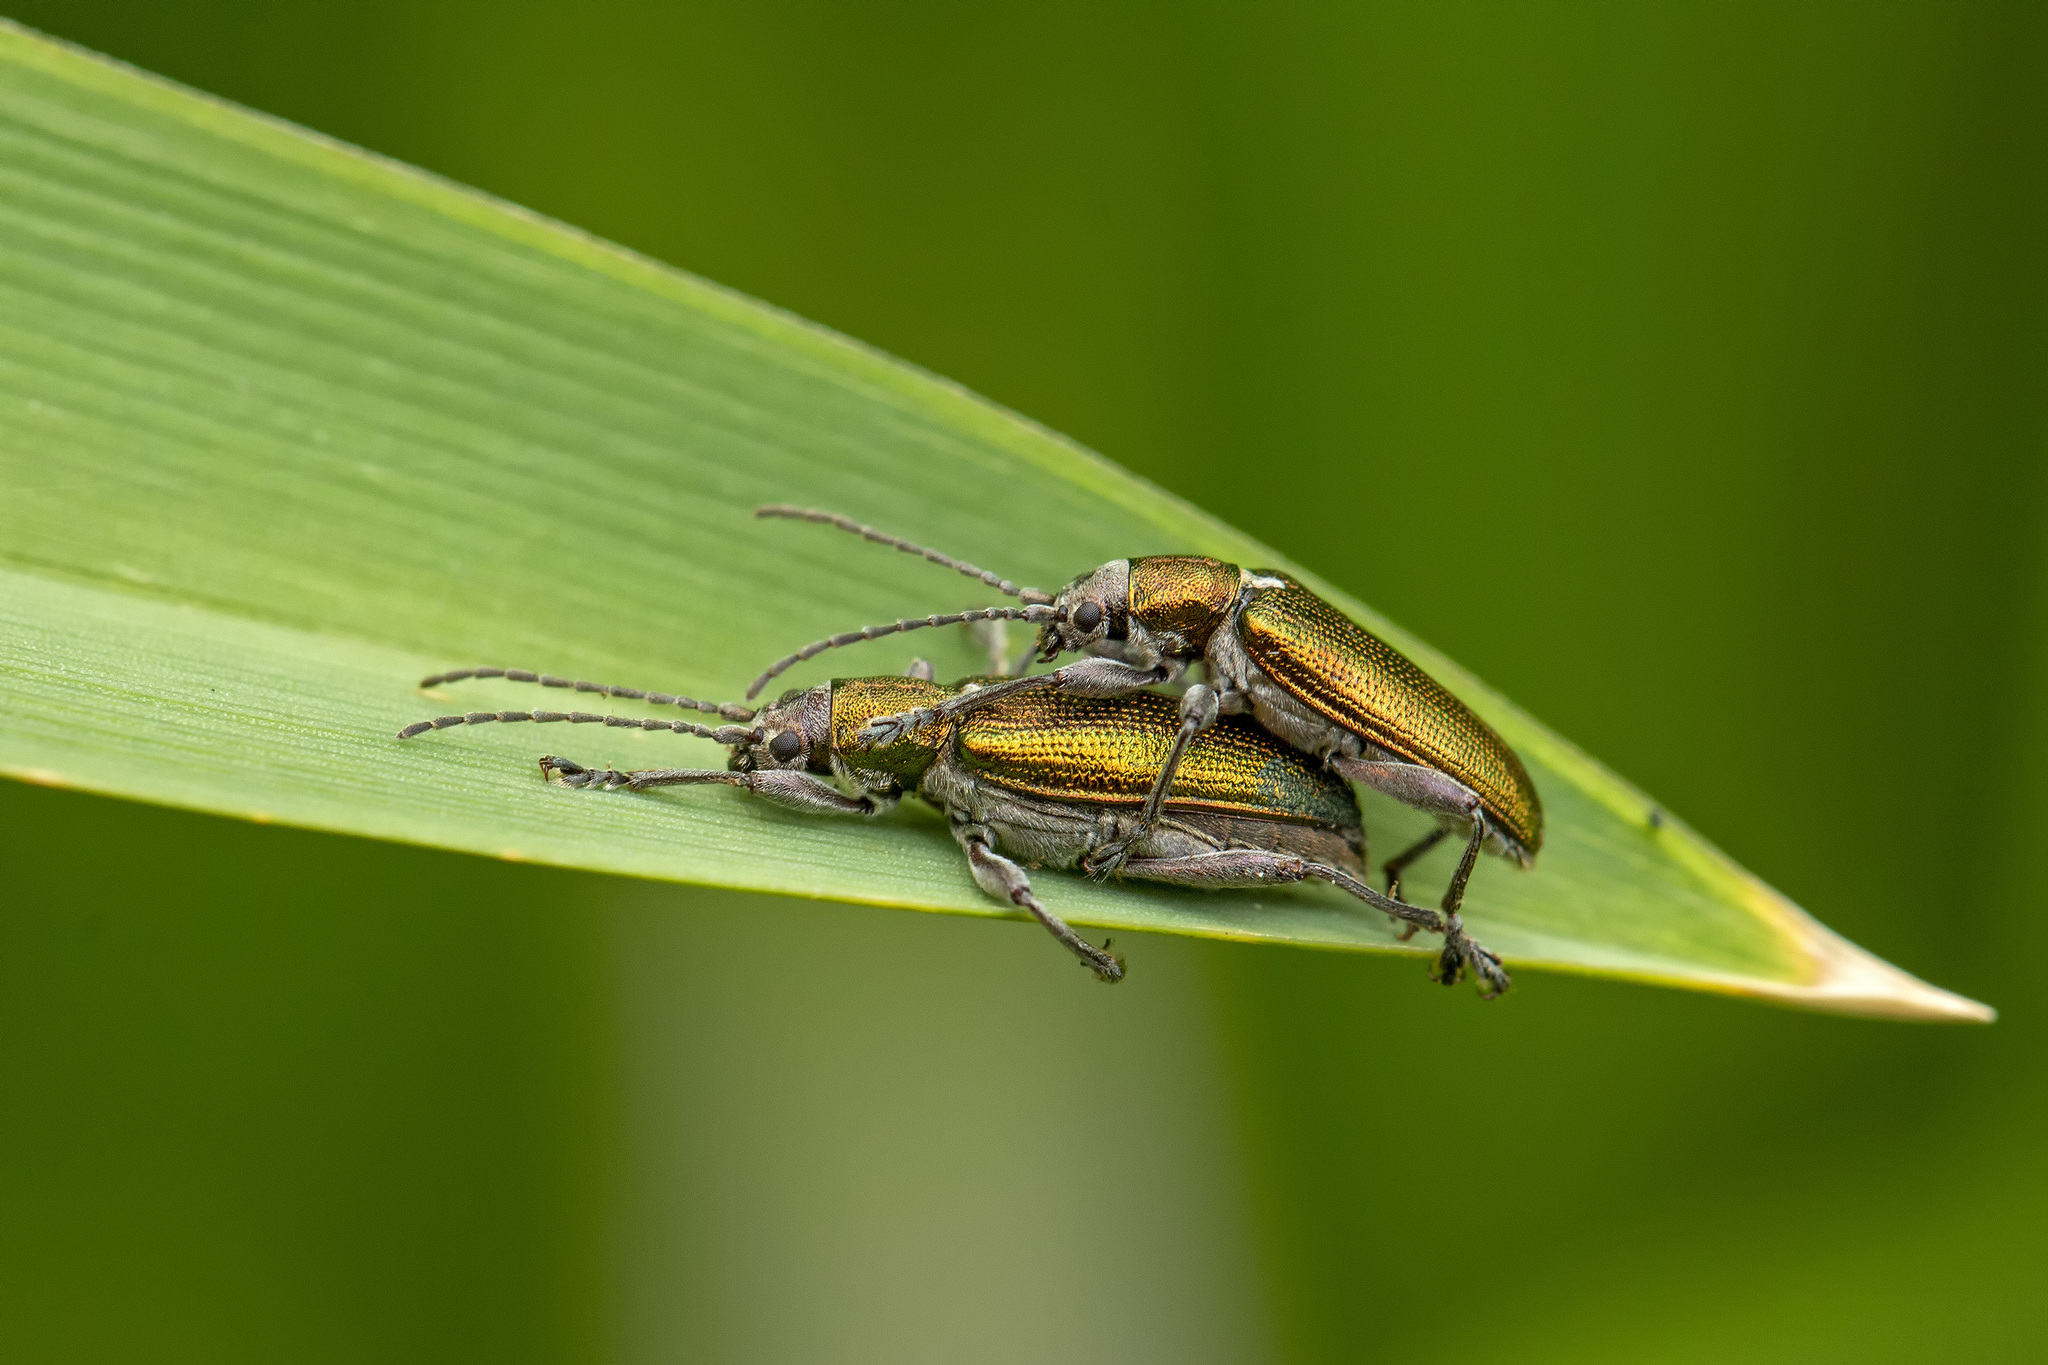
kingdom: Animalia
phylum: Arthropoda
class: Insecta
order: Coleoptera
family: Chrysomelidae
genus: Donacia
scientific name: Donacia semicuprea
